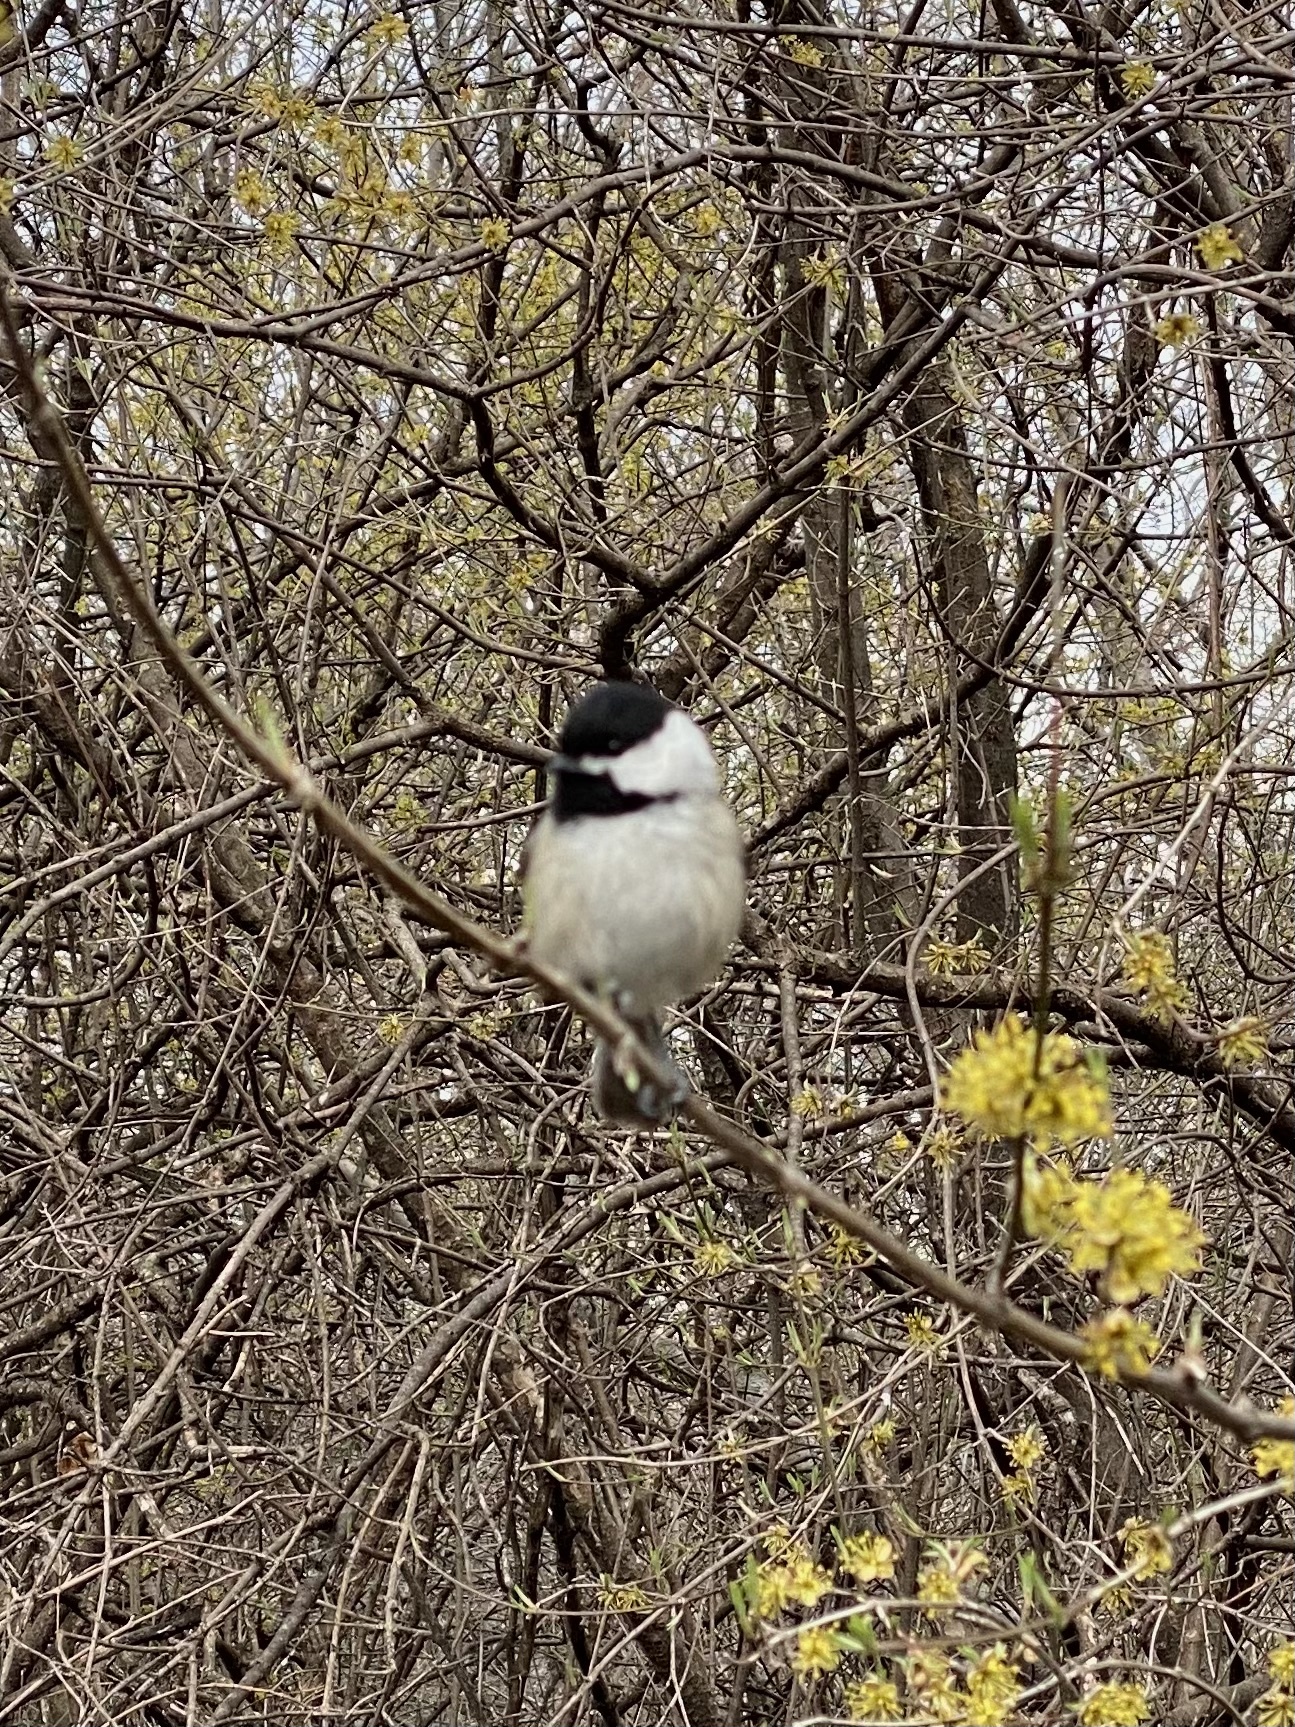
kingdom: Animalia
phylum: Chordata
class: Aves
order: Passeriformes
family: Paridae
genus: Poecile
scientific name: Poecile atricapillus
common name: Black-capped chickadee
